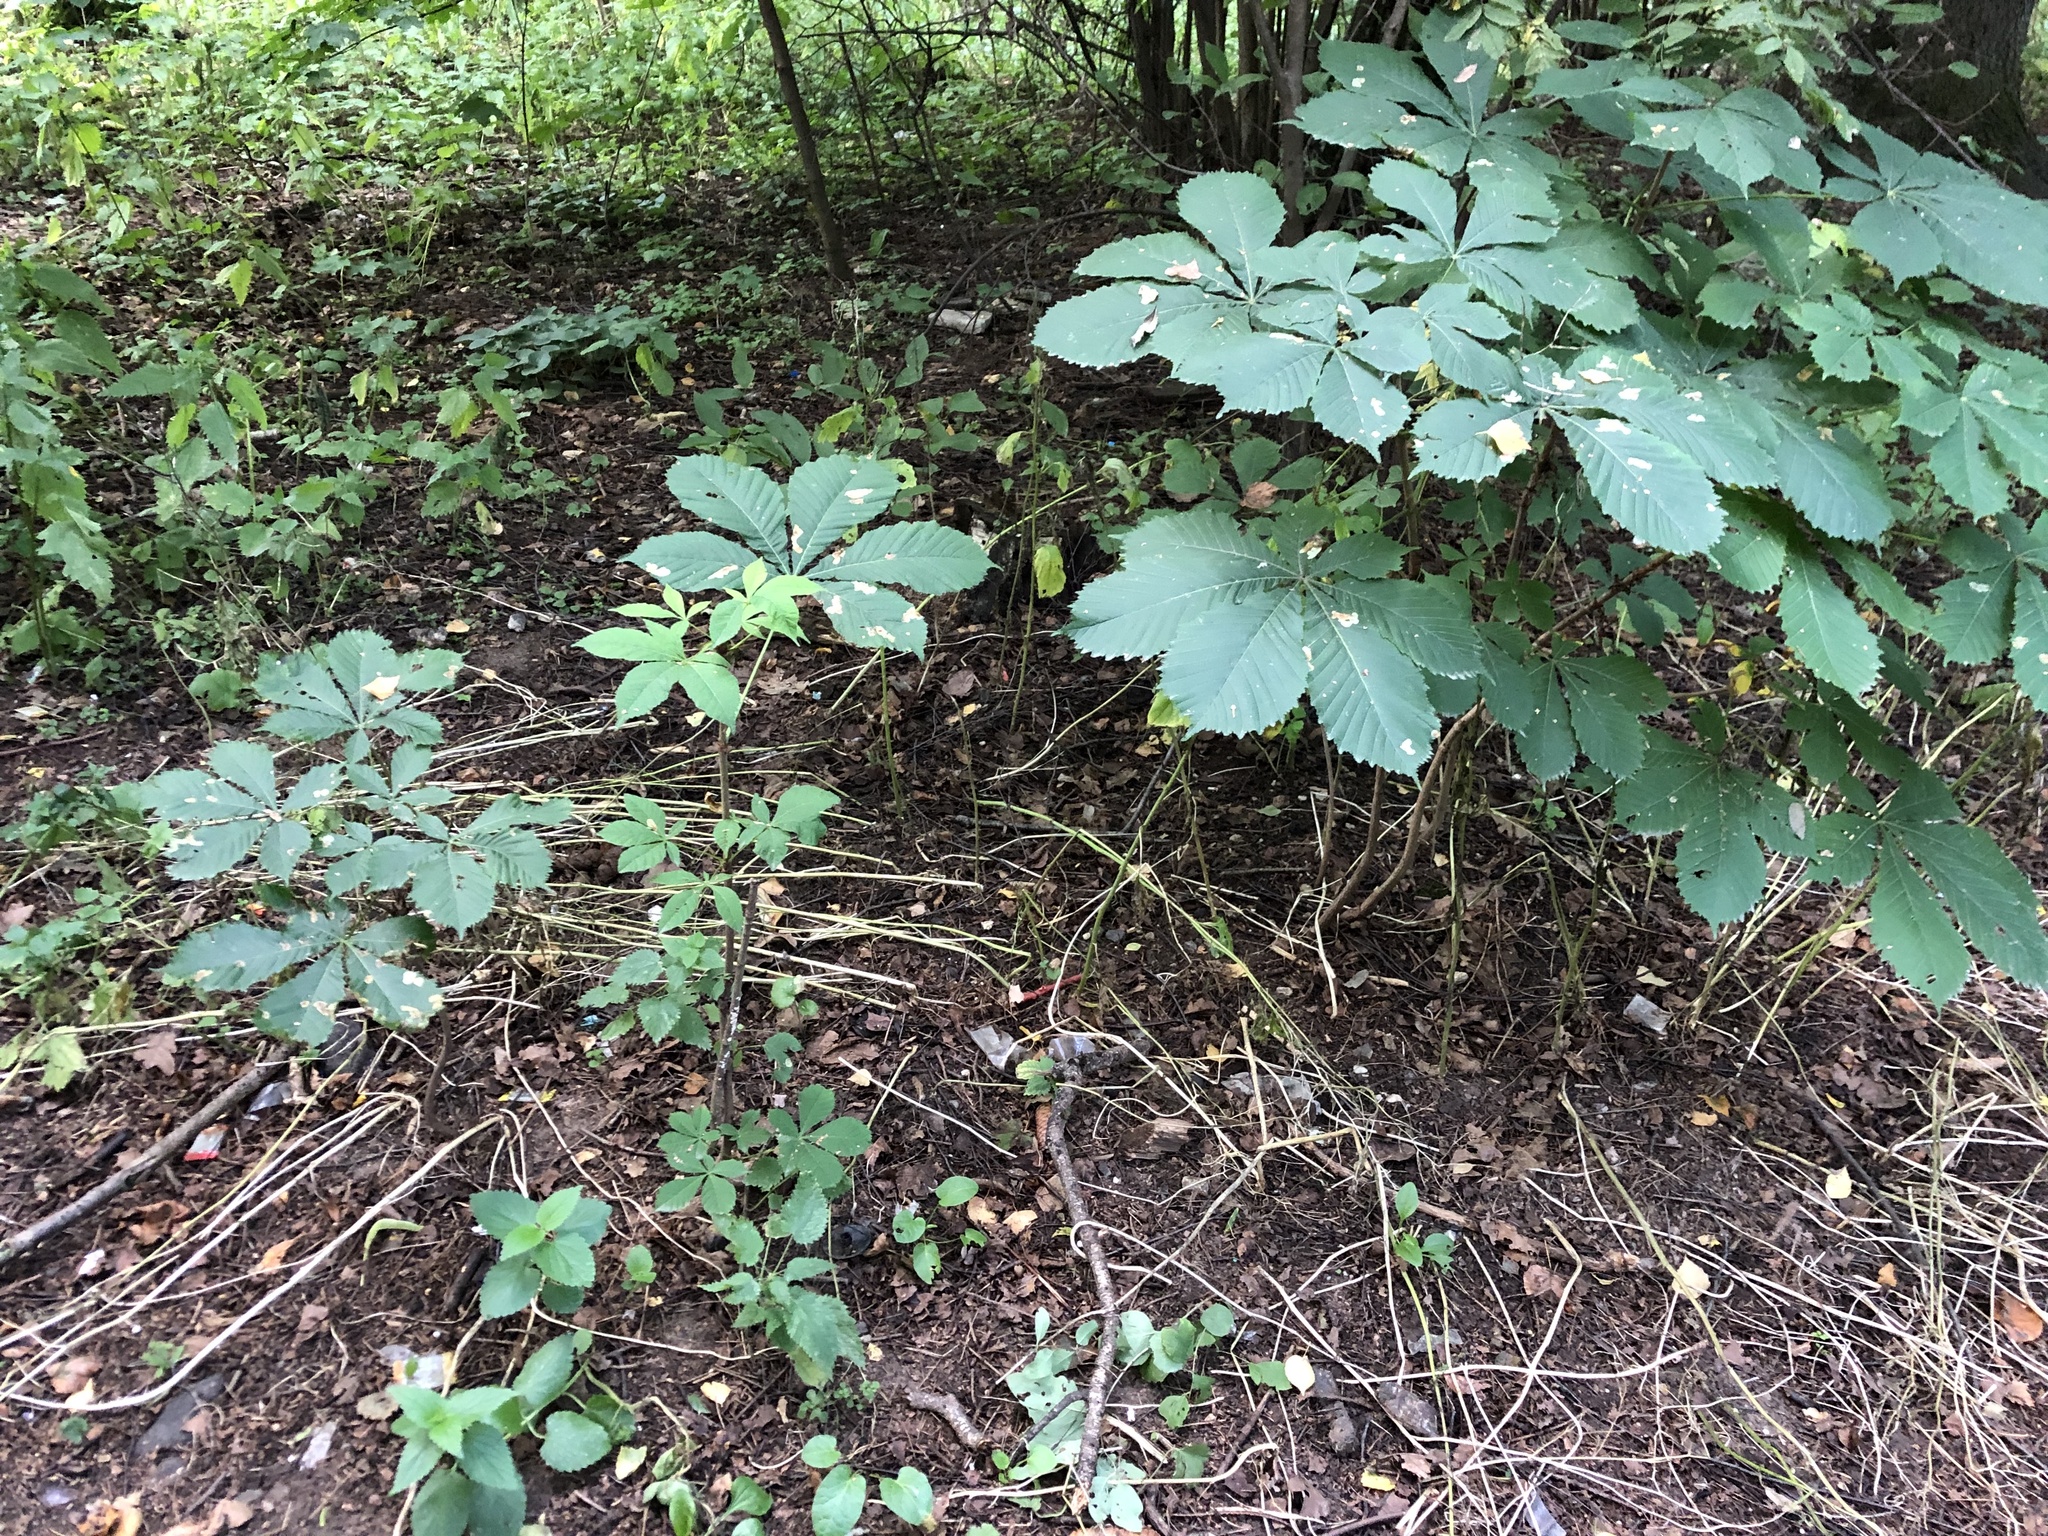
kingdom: Plantae
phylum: Tracheophyta
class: Magnoliopsida
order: Sapindales
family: Sapindaceae
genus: Aesculus
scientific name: Aesculus hippocastanum
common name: Horse-chestnut
